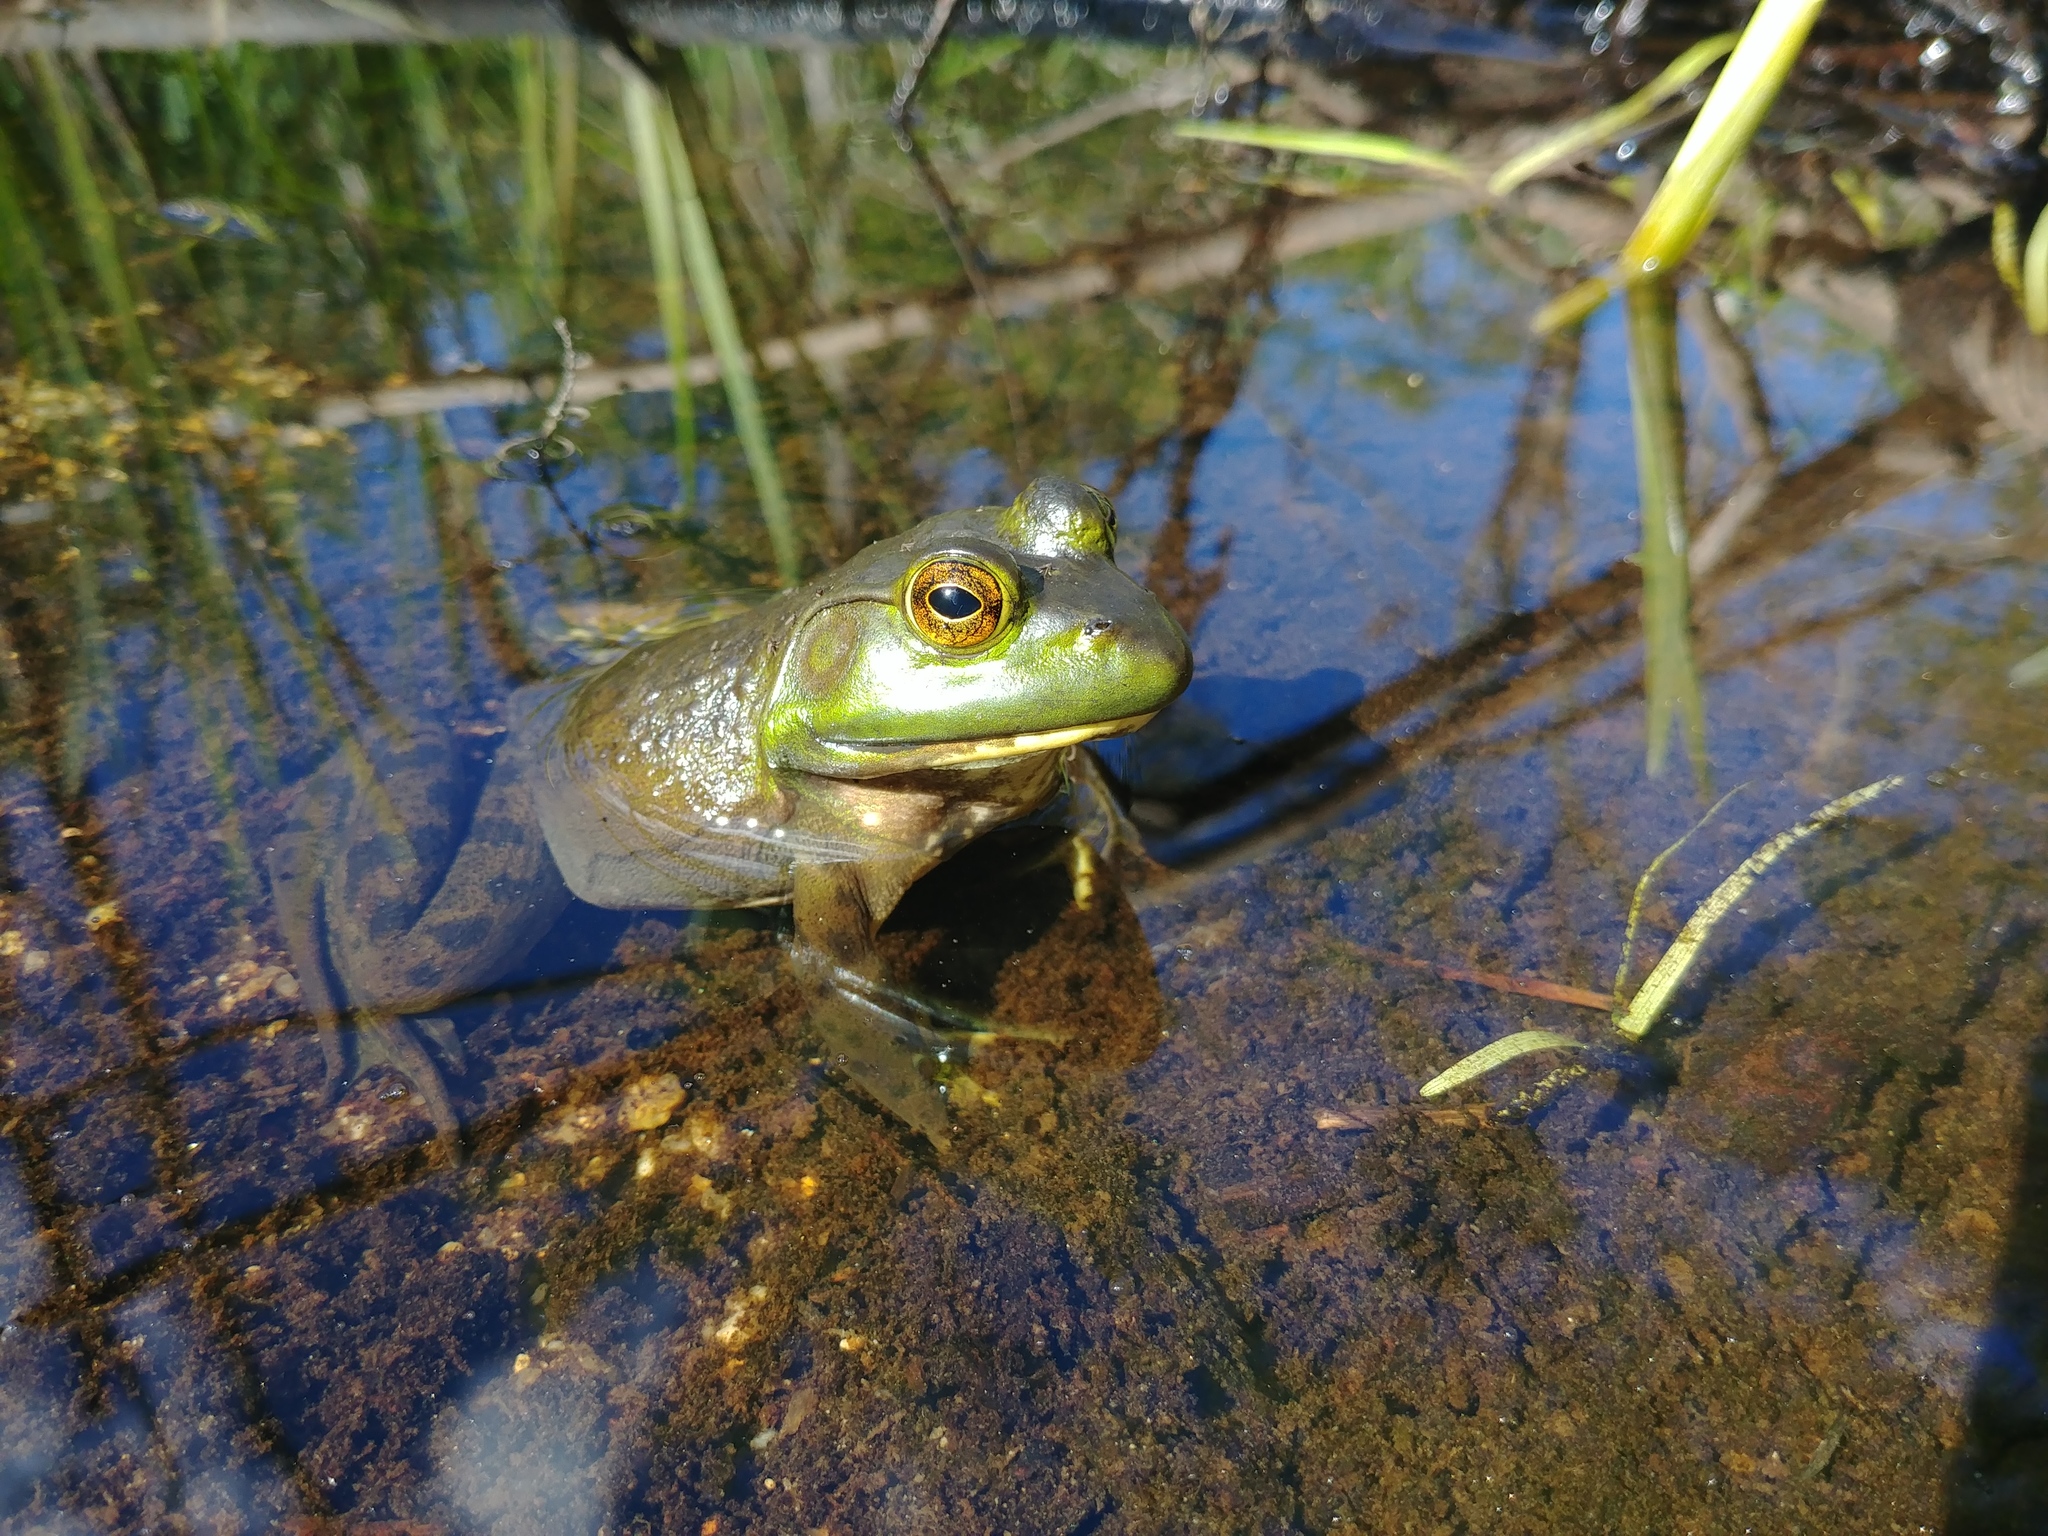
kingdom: Animalia
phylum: Chordata
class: Amphibia
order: Anura
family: Ranidae
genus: Lithobates
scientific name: Lithobates catesbeianus
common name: American bullfrog
